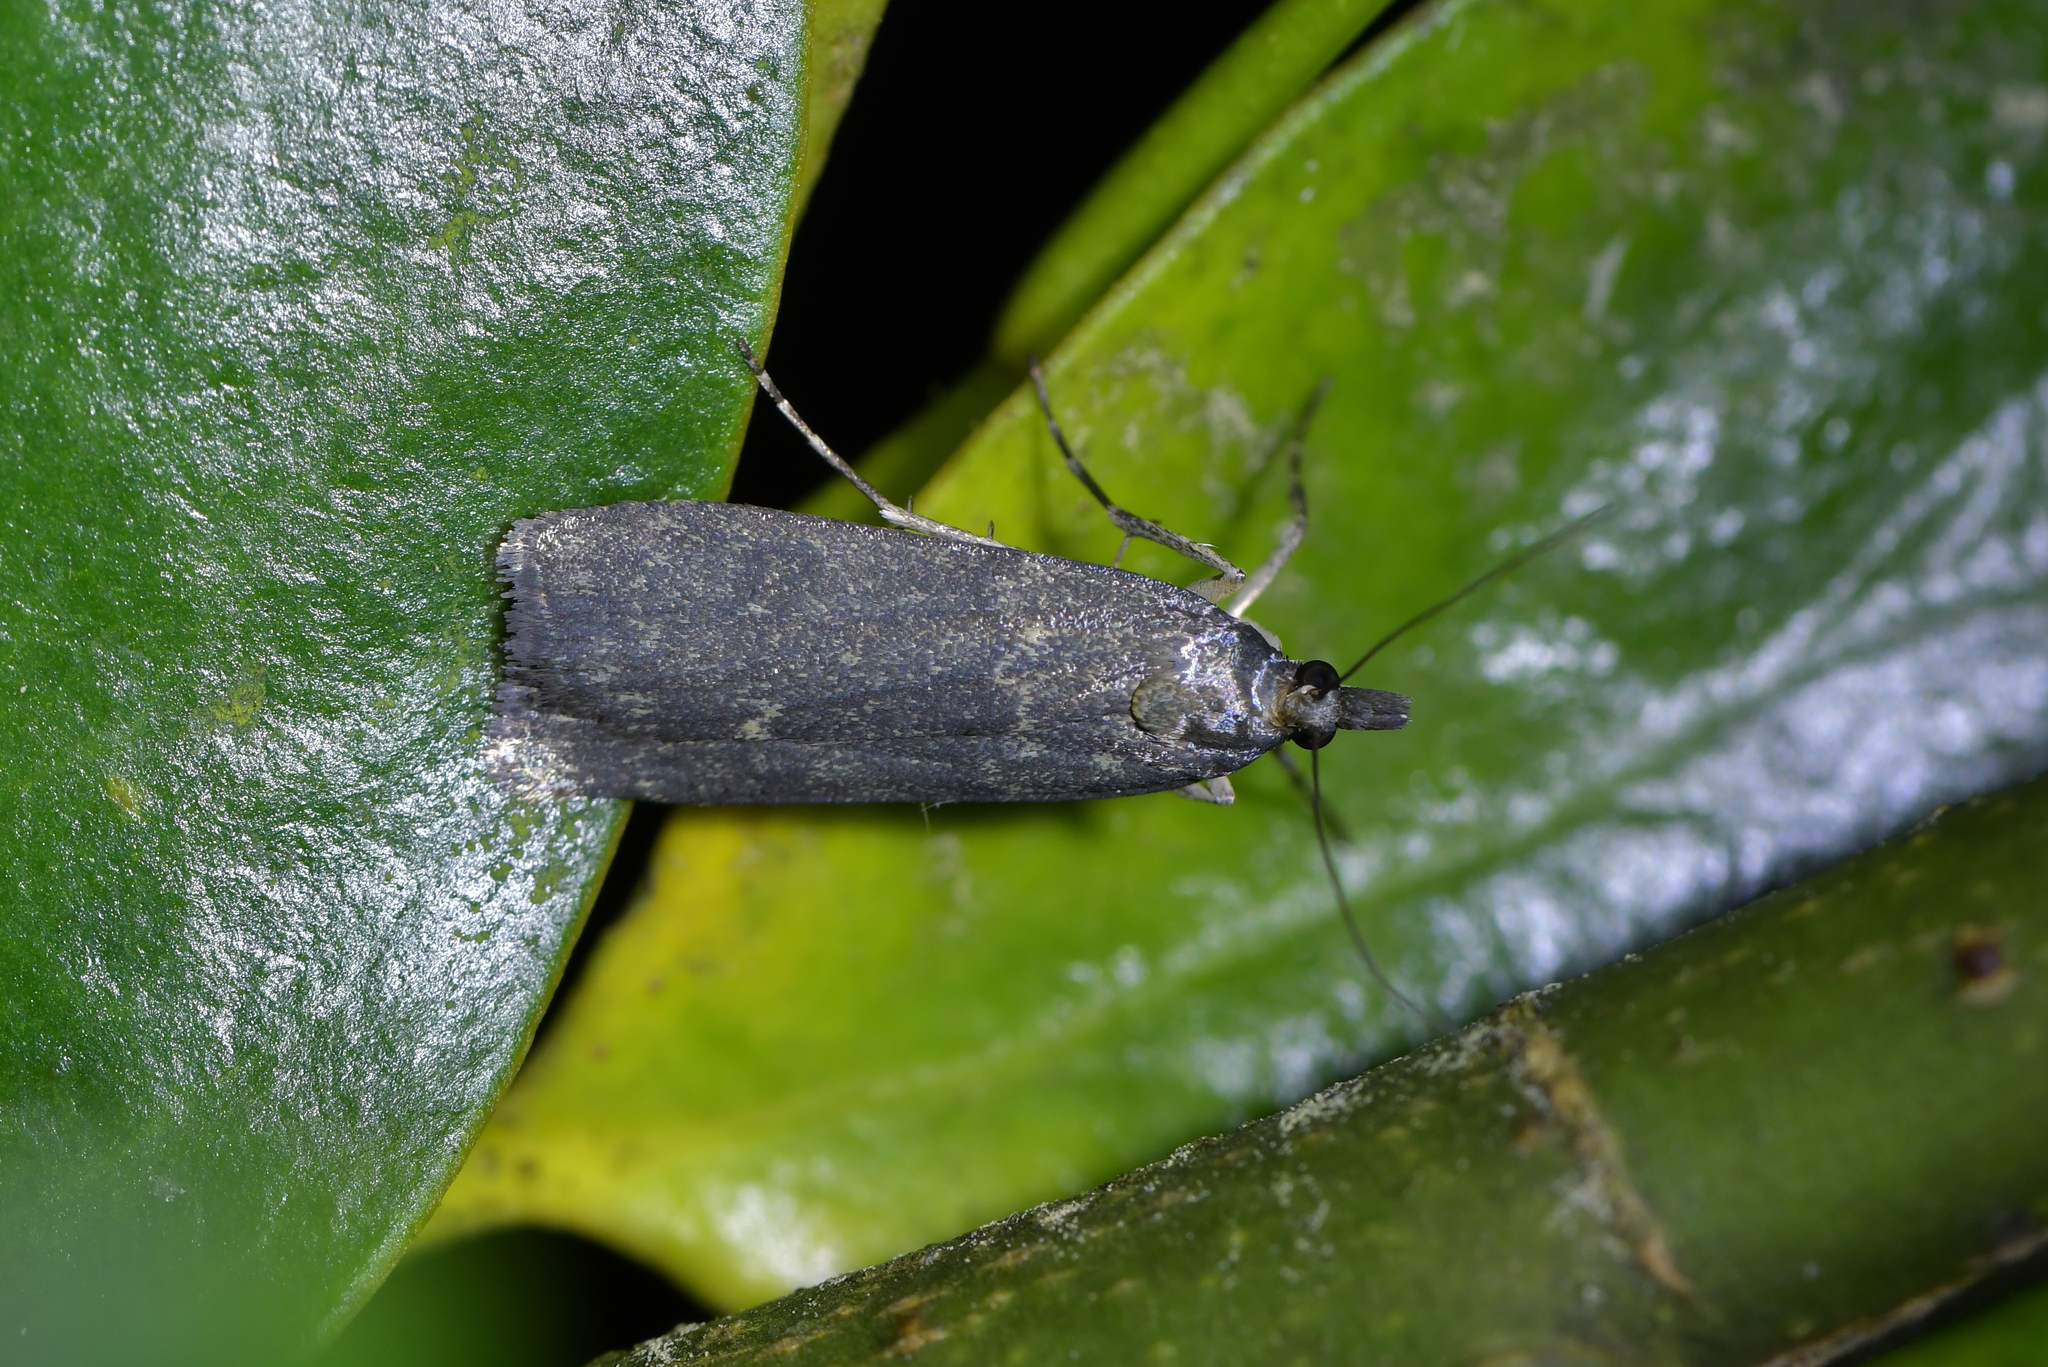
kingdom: Animalia
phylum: Arthropoda
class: Insecta
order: Lepidoptera
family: Crambidae
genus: Eudonia
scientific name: Eudonia cataxesta
